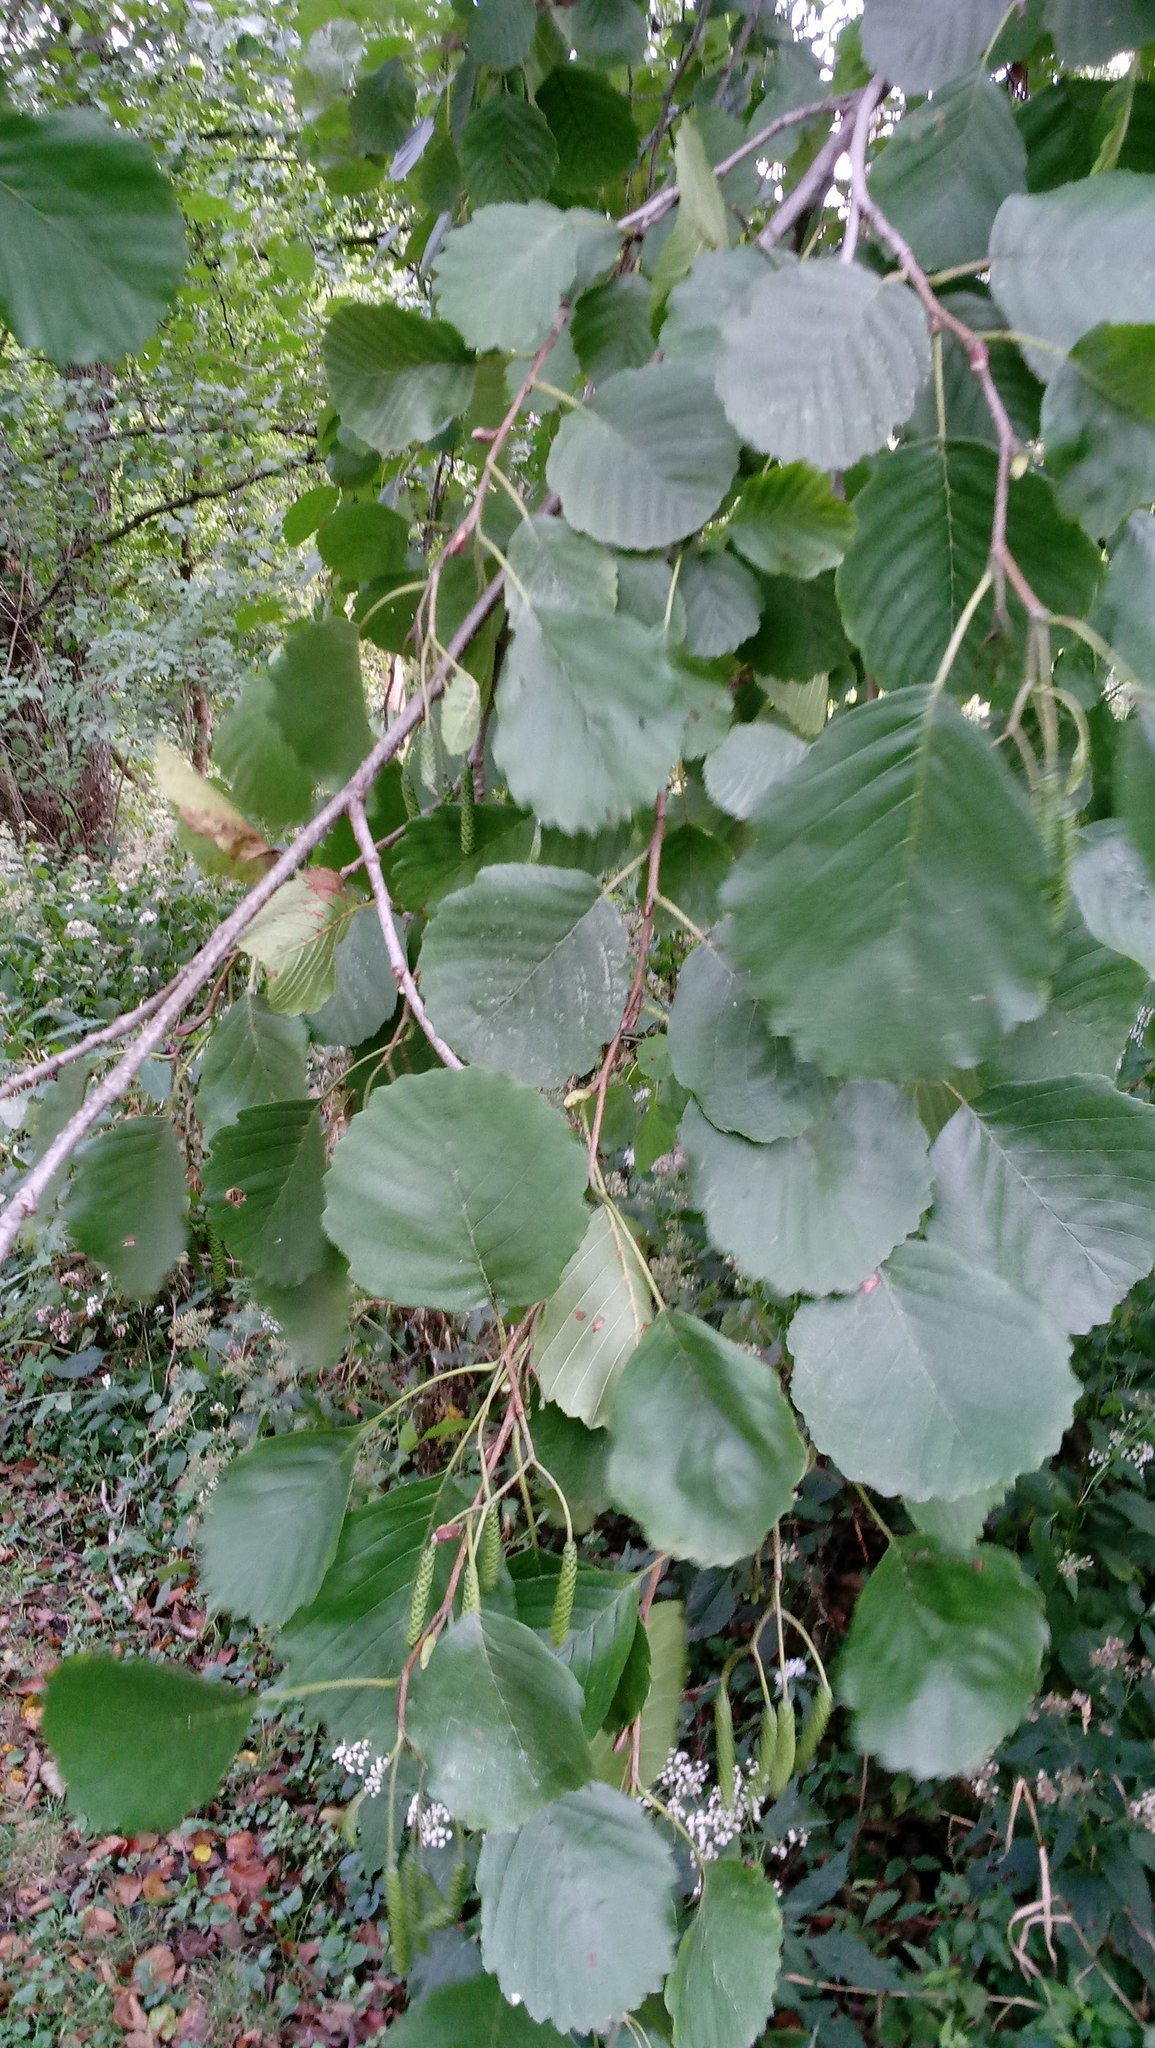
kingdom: Plantae
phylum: Tracheophyta
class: Magnoliopsida
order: Fagales
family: Betulaceae
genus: Alnus
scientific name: Alnus glutinosa
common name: Black alder
